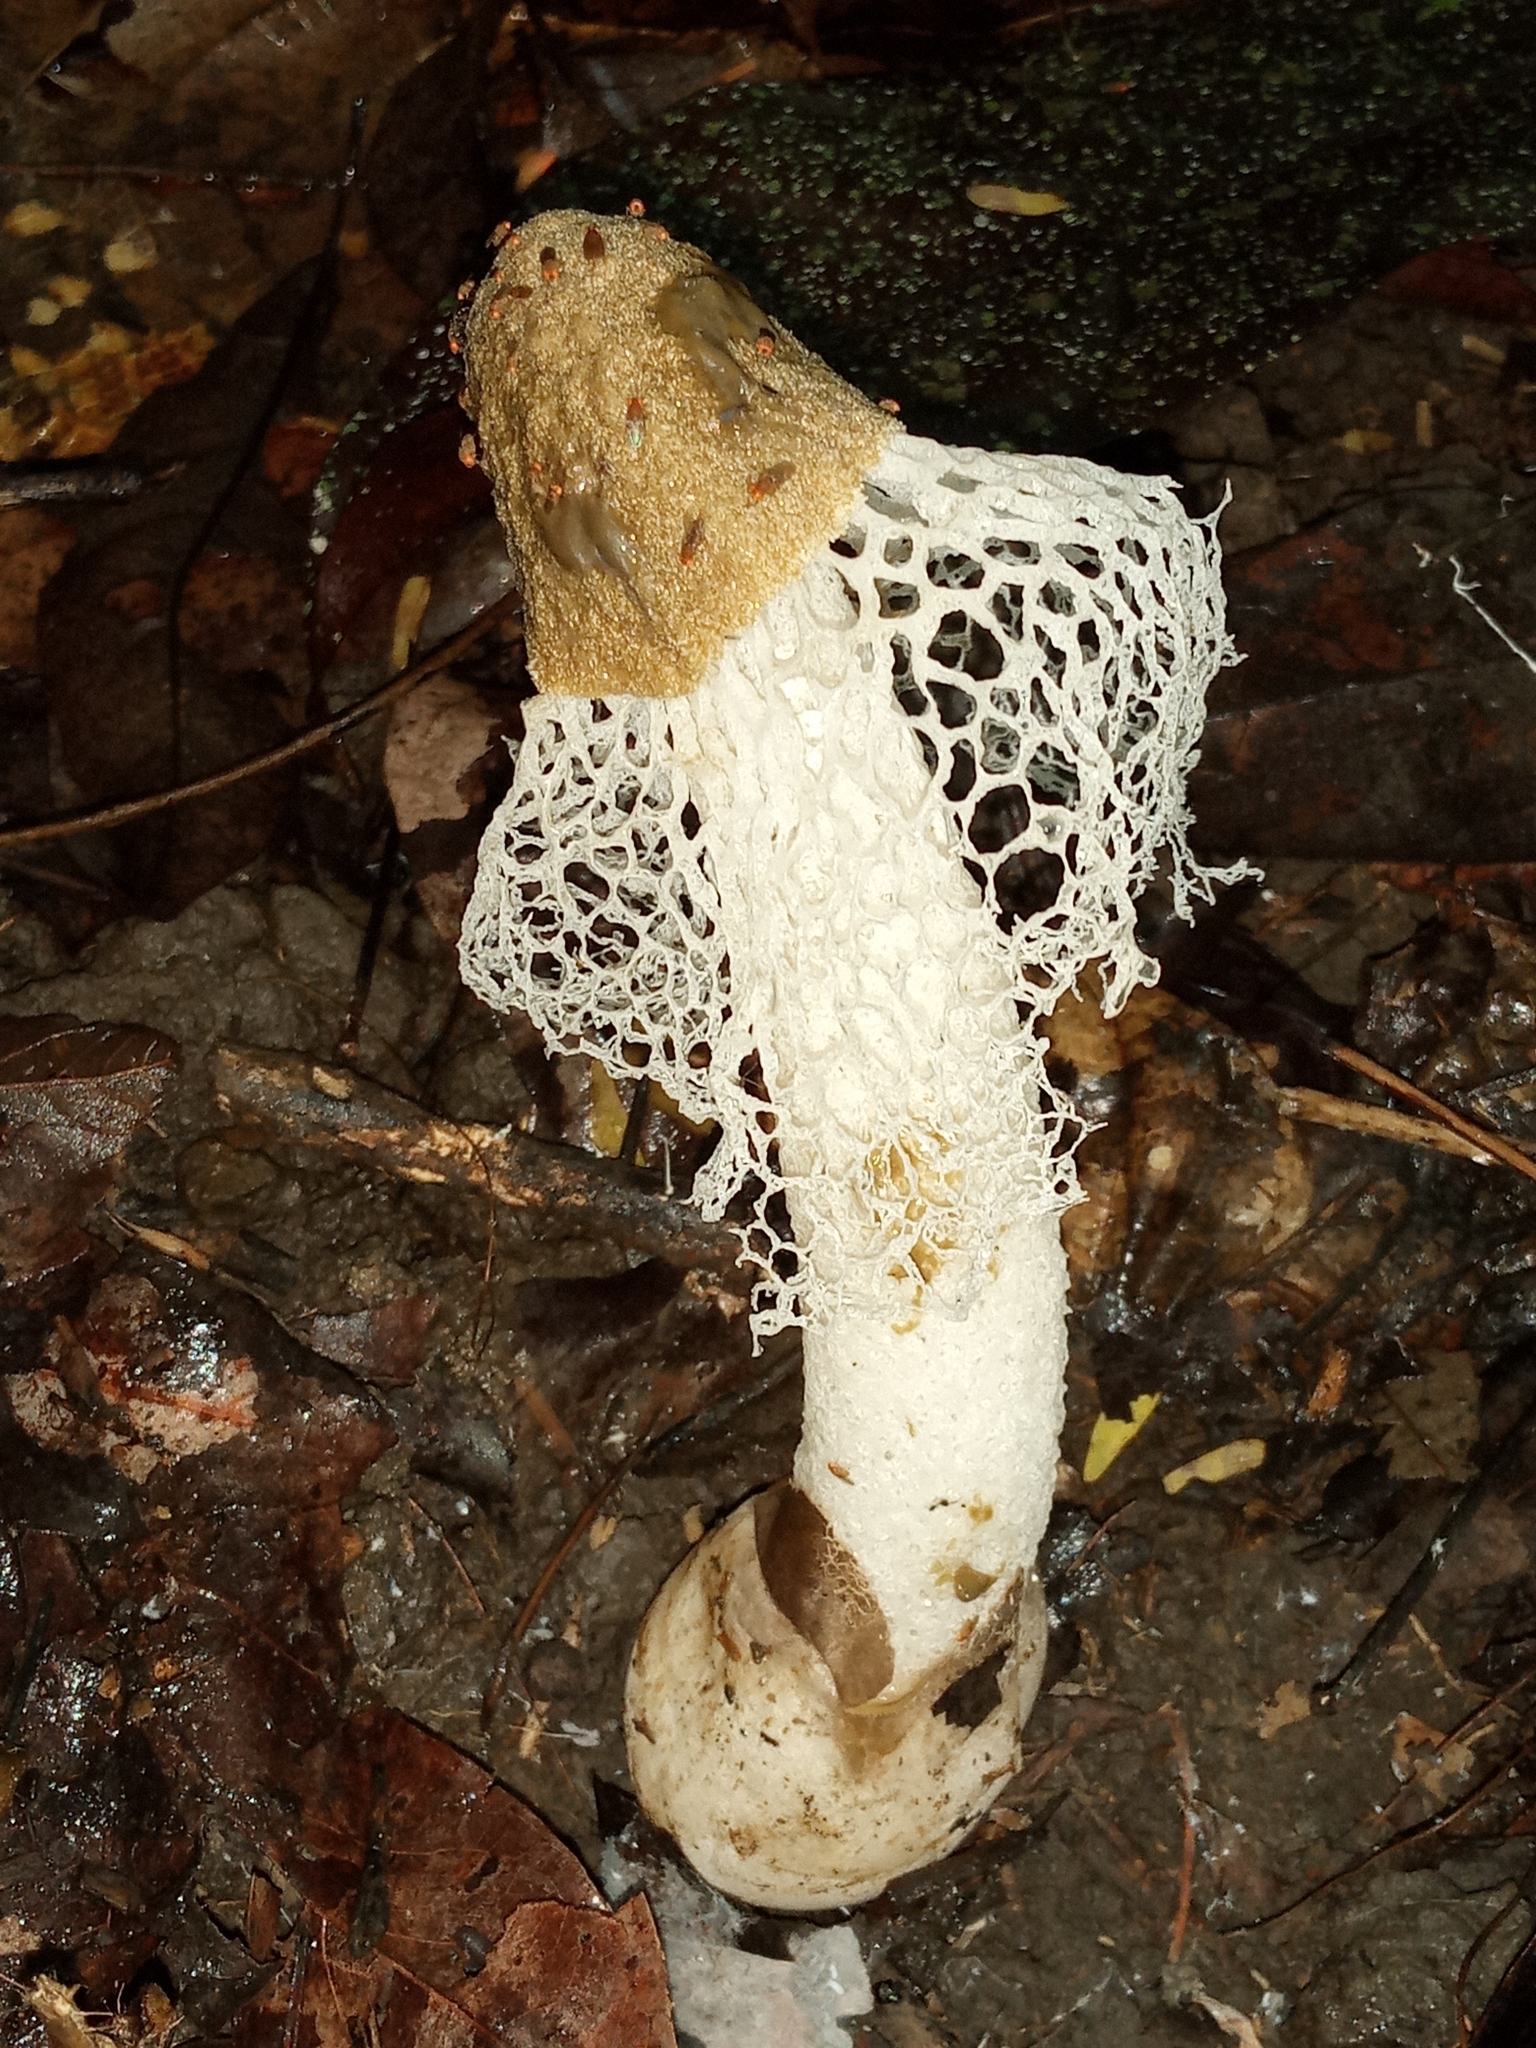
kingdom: Fungi
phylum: Basidiomycota
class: Agaricomycetes
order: Phallales
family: Phallaceae
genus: Phallus
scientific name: Phallus merulinus
